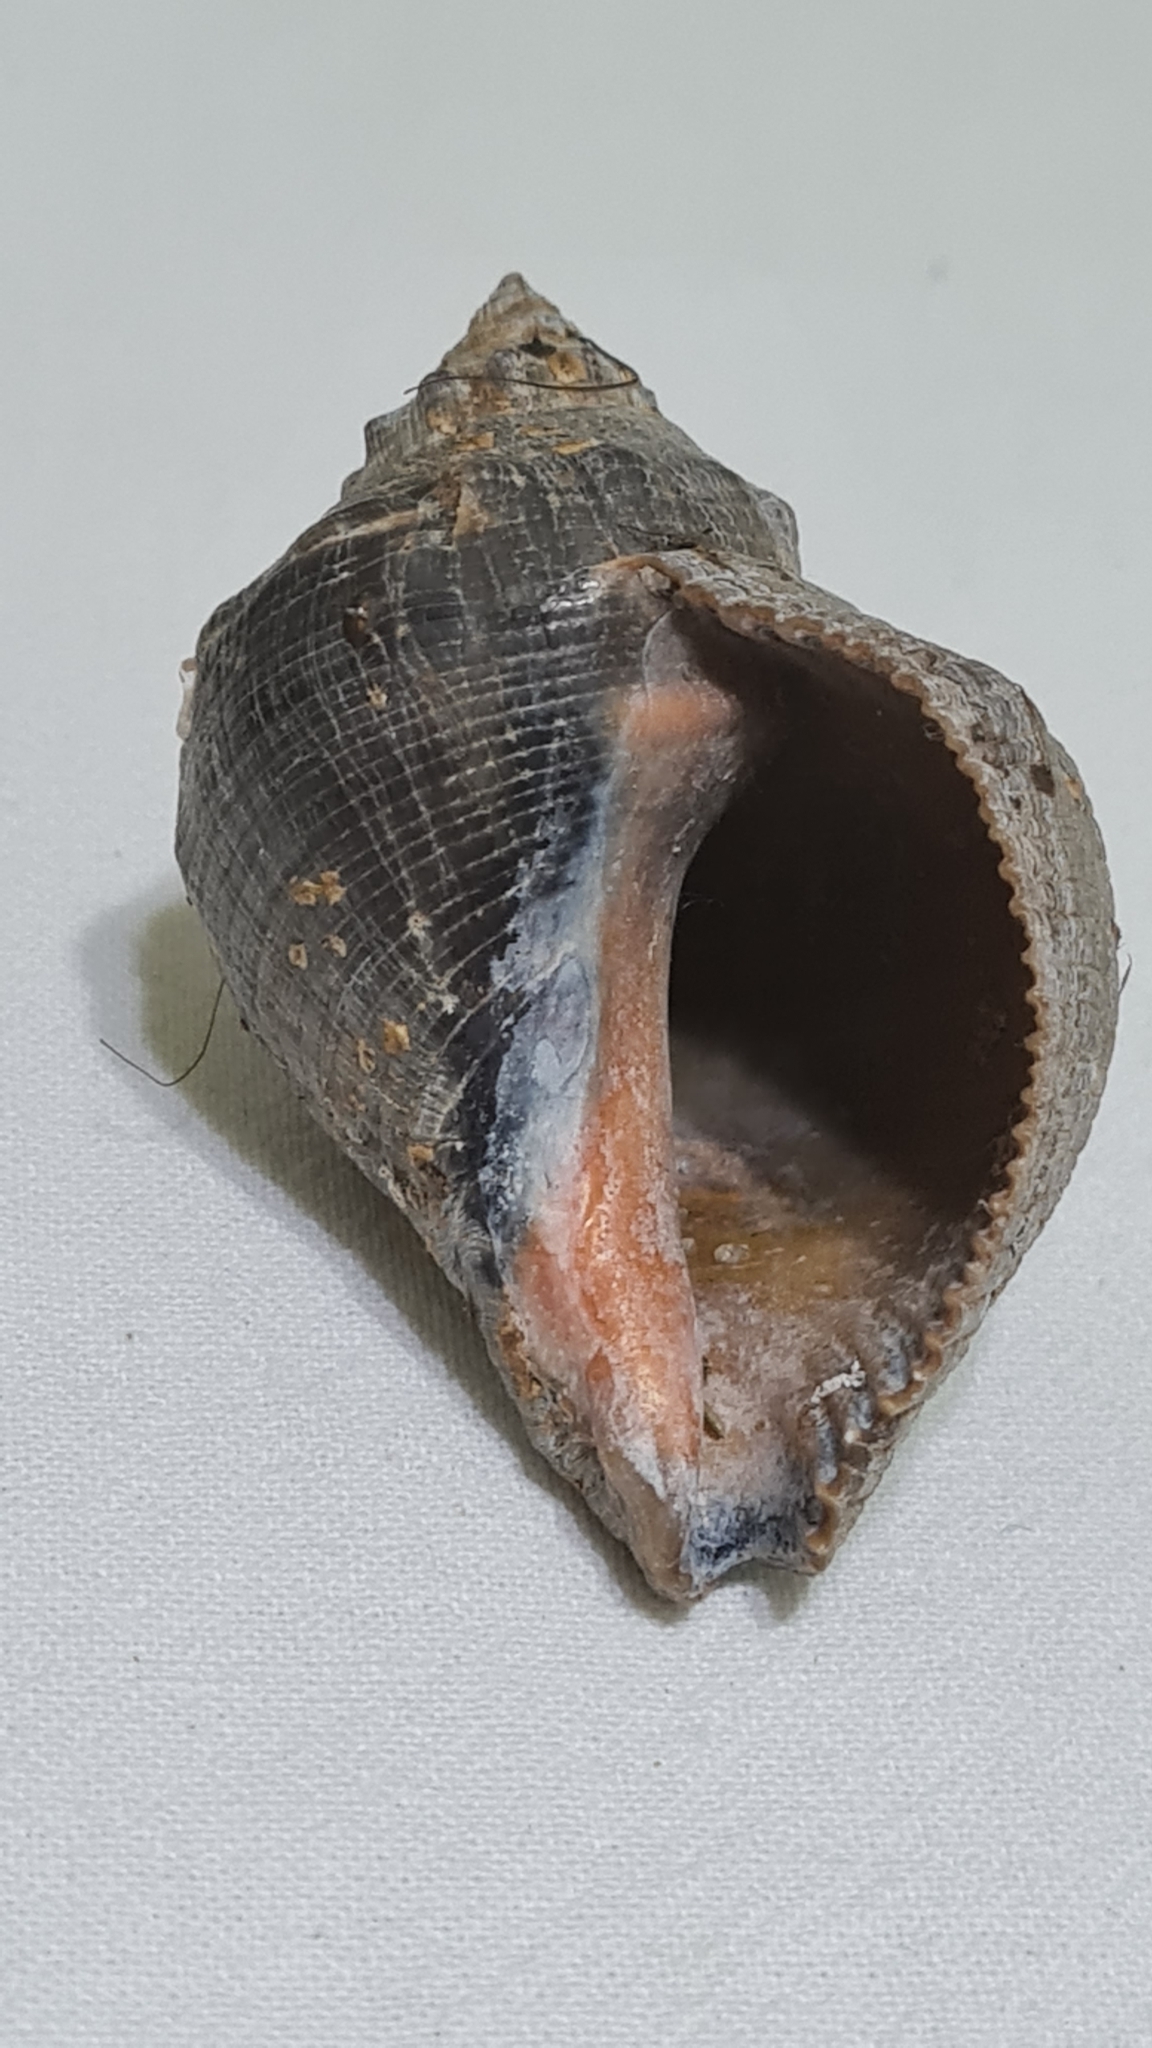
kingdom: Animalia
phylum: Mollusca
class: Gastropoda
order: Neogastropoda
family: Muricidae
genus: Stramonita
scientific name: Stramonita brasiliensis
